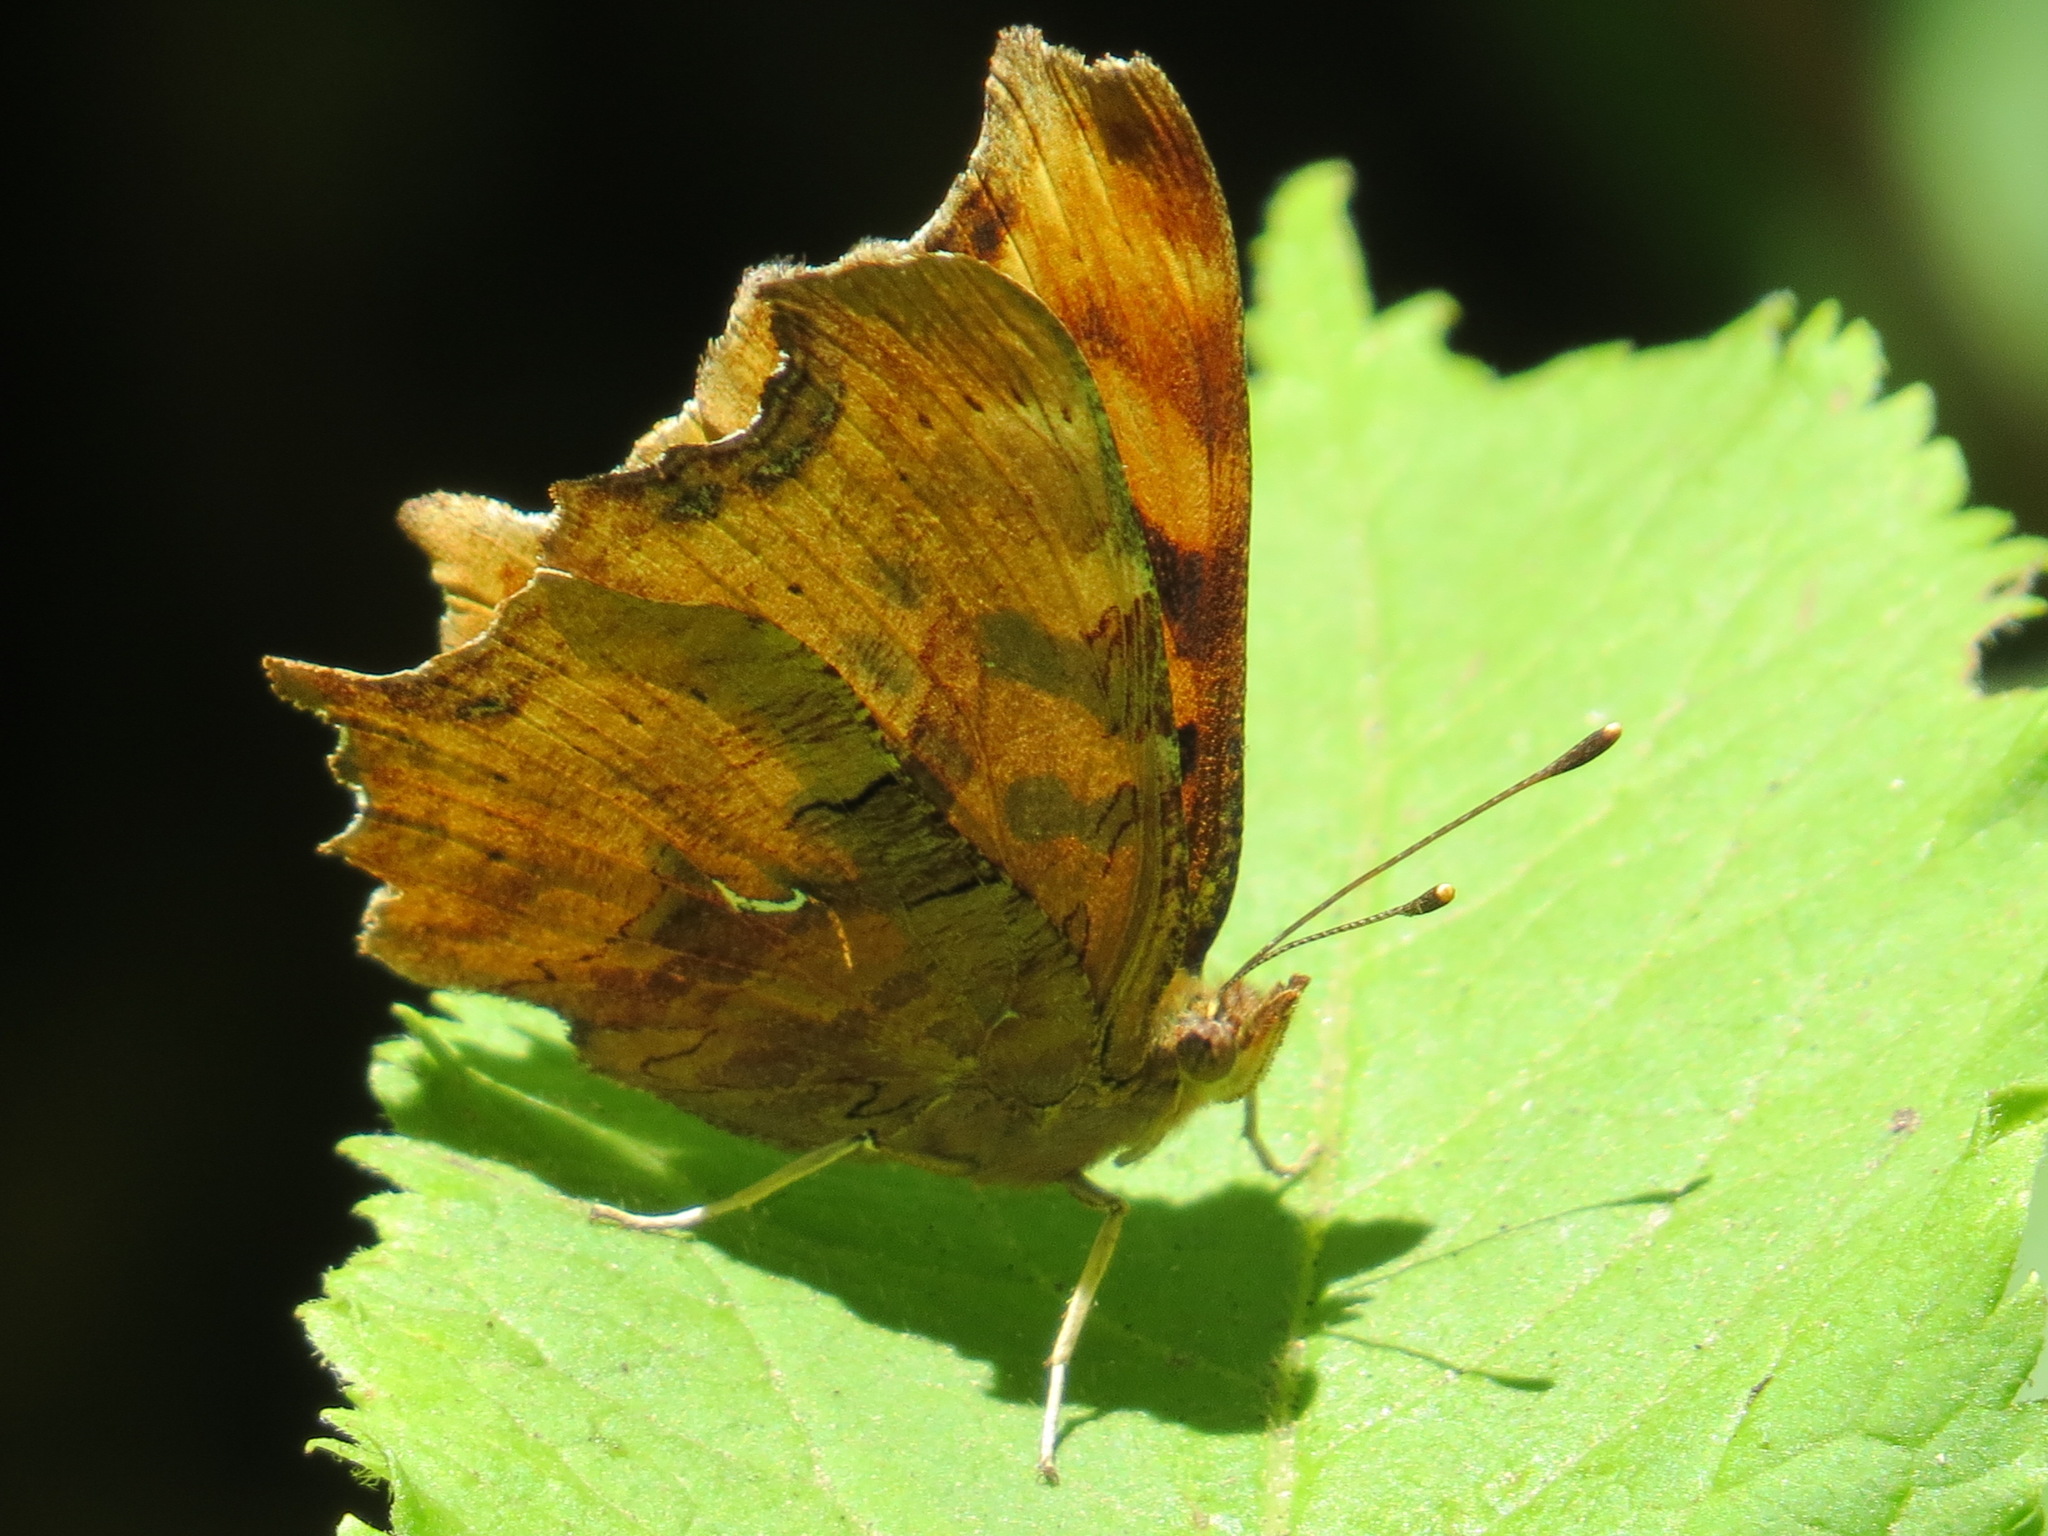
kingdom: Animalia
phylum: Arthropoda
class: Insecta
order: Lepidoptera
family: Nymphalidae
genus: Polygonia
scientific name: Polygonia satyrus
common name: Satyr angle wing
